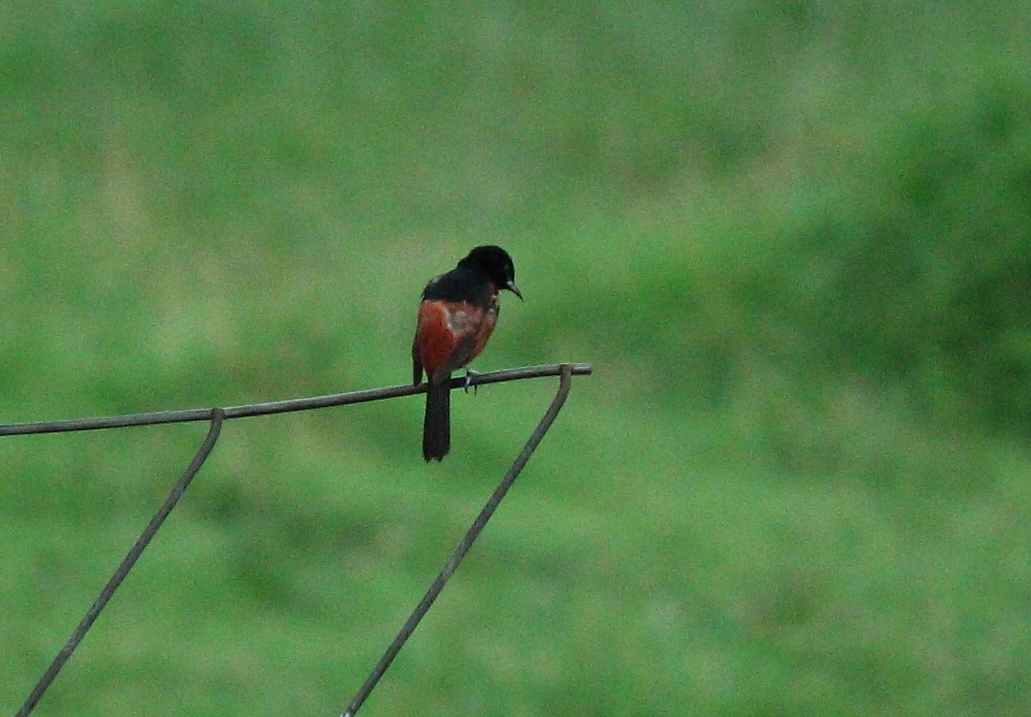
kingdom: Animalia
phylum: Chordata
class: Aves
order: Passeriformes
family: Icteridae
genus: Icterus
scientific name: Icterus spurius
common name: Orchard oriole
